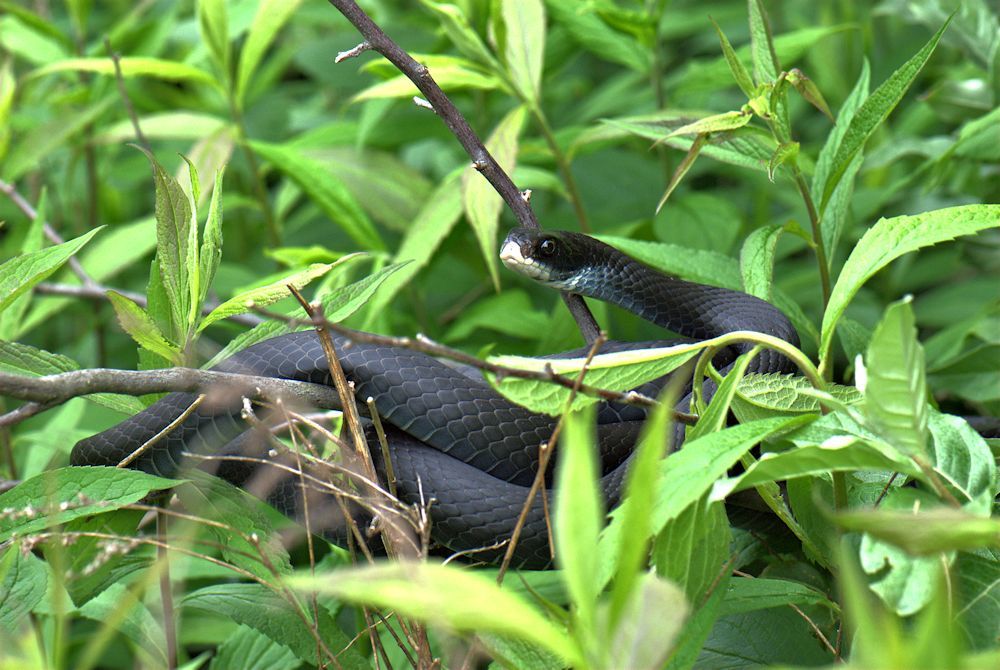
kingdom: Animalia
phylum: Chordata
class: Squamata
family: Colubridae
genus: Coluber
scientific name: Coluber constrictor
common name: Eastern racer
